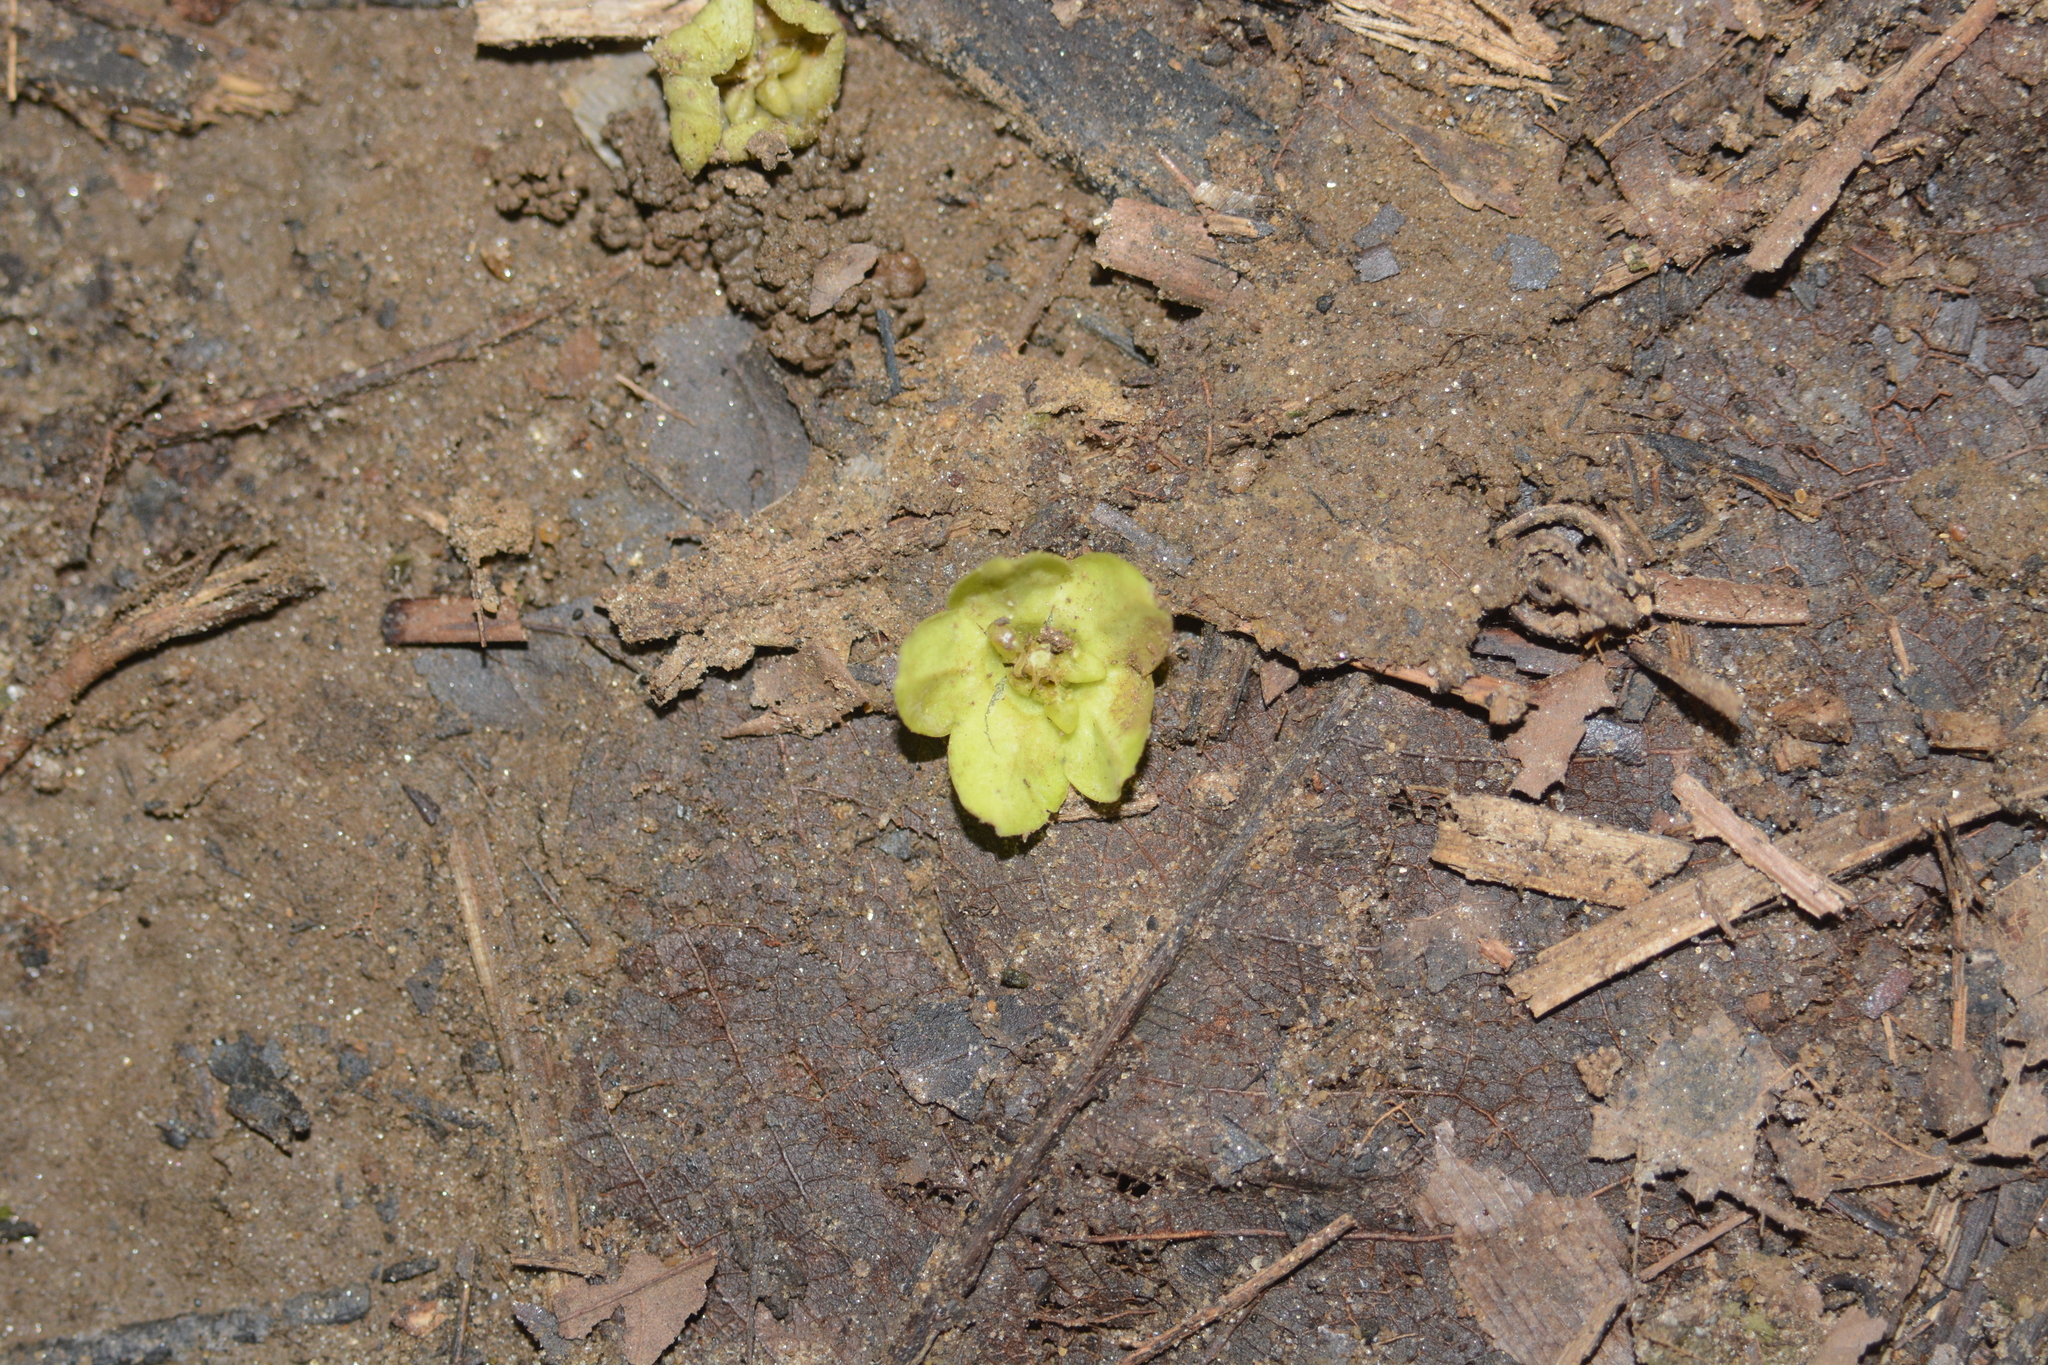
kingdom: Plantae
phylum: Tracheophyta
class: Magnoliopsida
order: Gentianales
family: Apocynaceae
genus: Stephanotis
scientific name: Stephanotis volubilis
